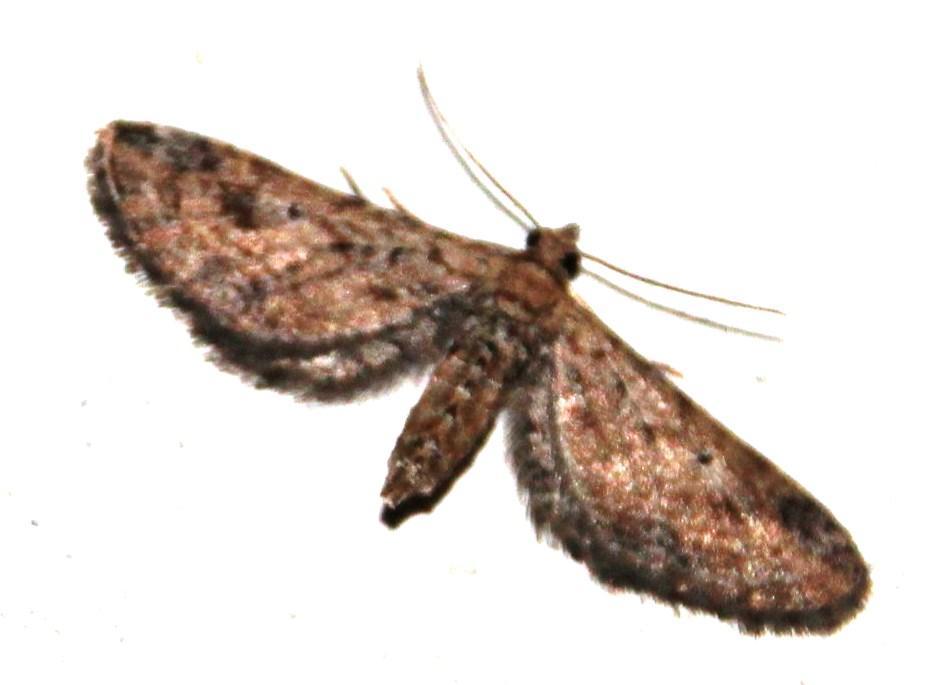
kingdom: Animalia
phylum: Arthropoda
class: Insecta
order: Lepidoptera
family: Geometridae
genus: Eupithecia
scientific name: Eupithecia infelix
